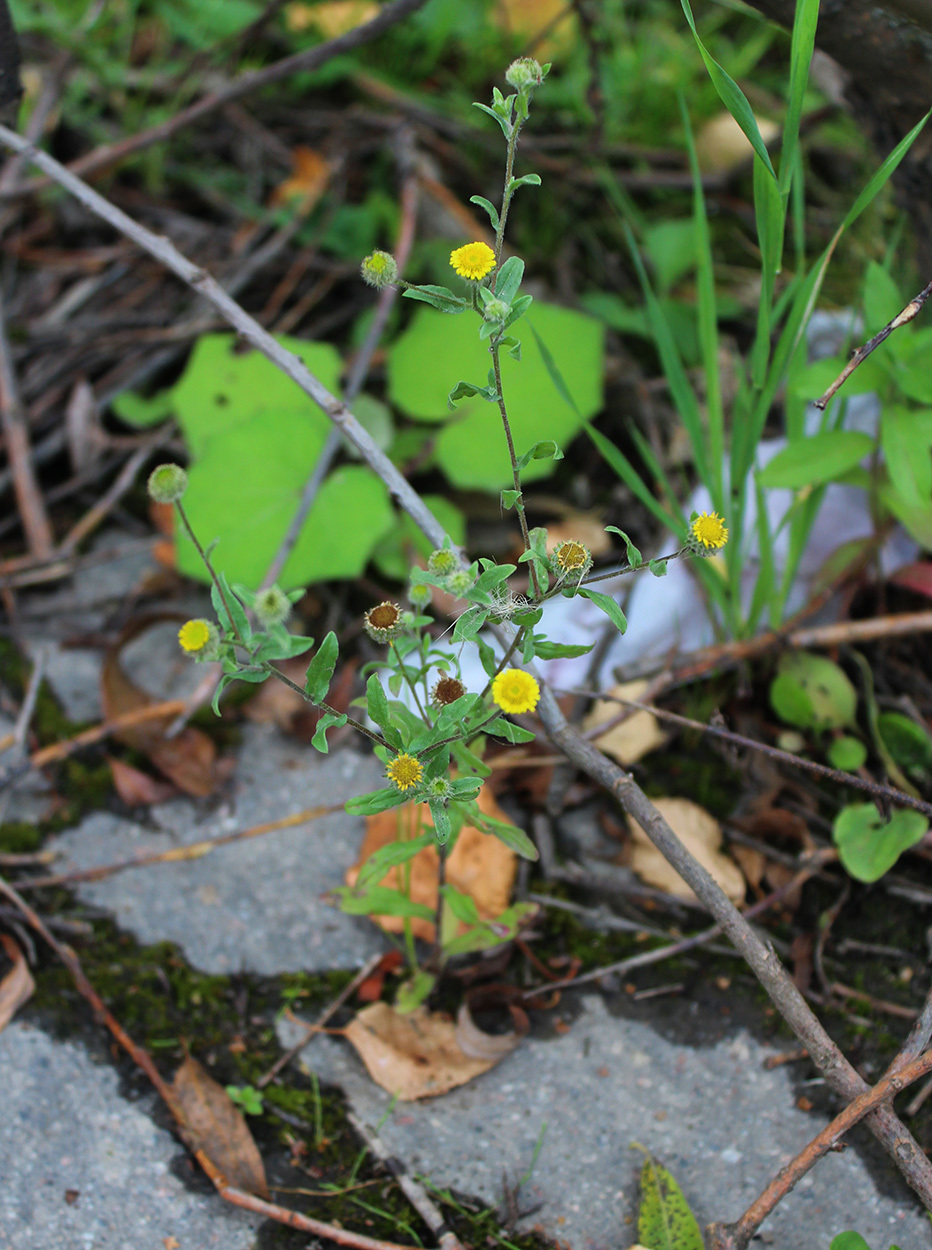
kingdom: Plantae
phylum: Tracheophyta
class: Magnoliopsida
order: Asterales
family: Asteraceae
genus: Pulicaria
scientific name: Pulicaria vulgaris
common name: Small fleabane
